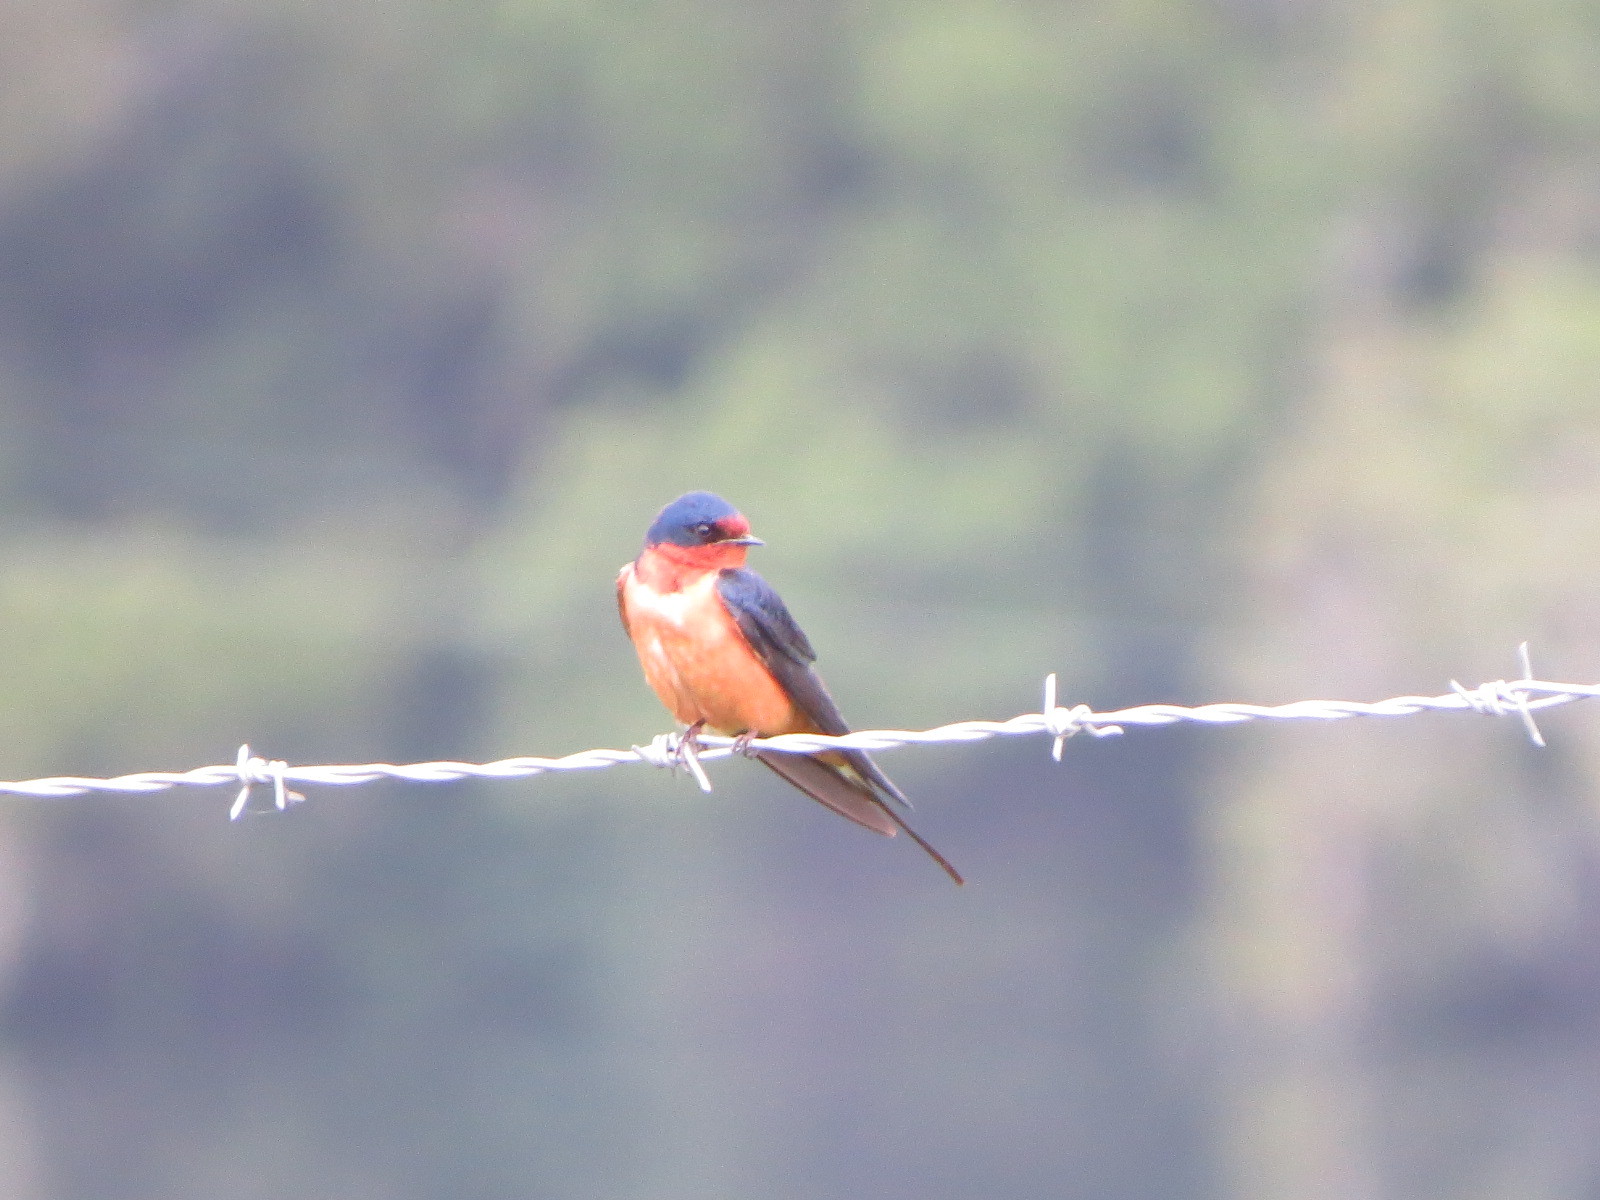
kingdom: Animalia
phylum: Chordata
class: Aves
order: Passeriformes
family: Hirundinidae
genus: Hirundo
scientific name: Hirundo rustica
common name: Barn swallow
